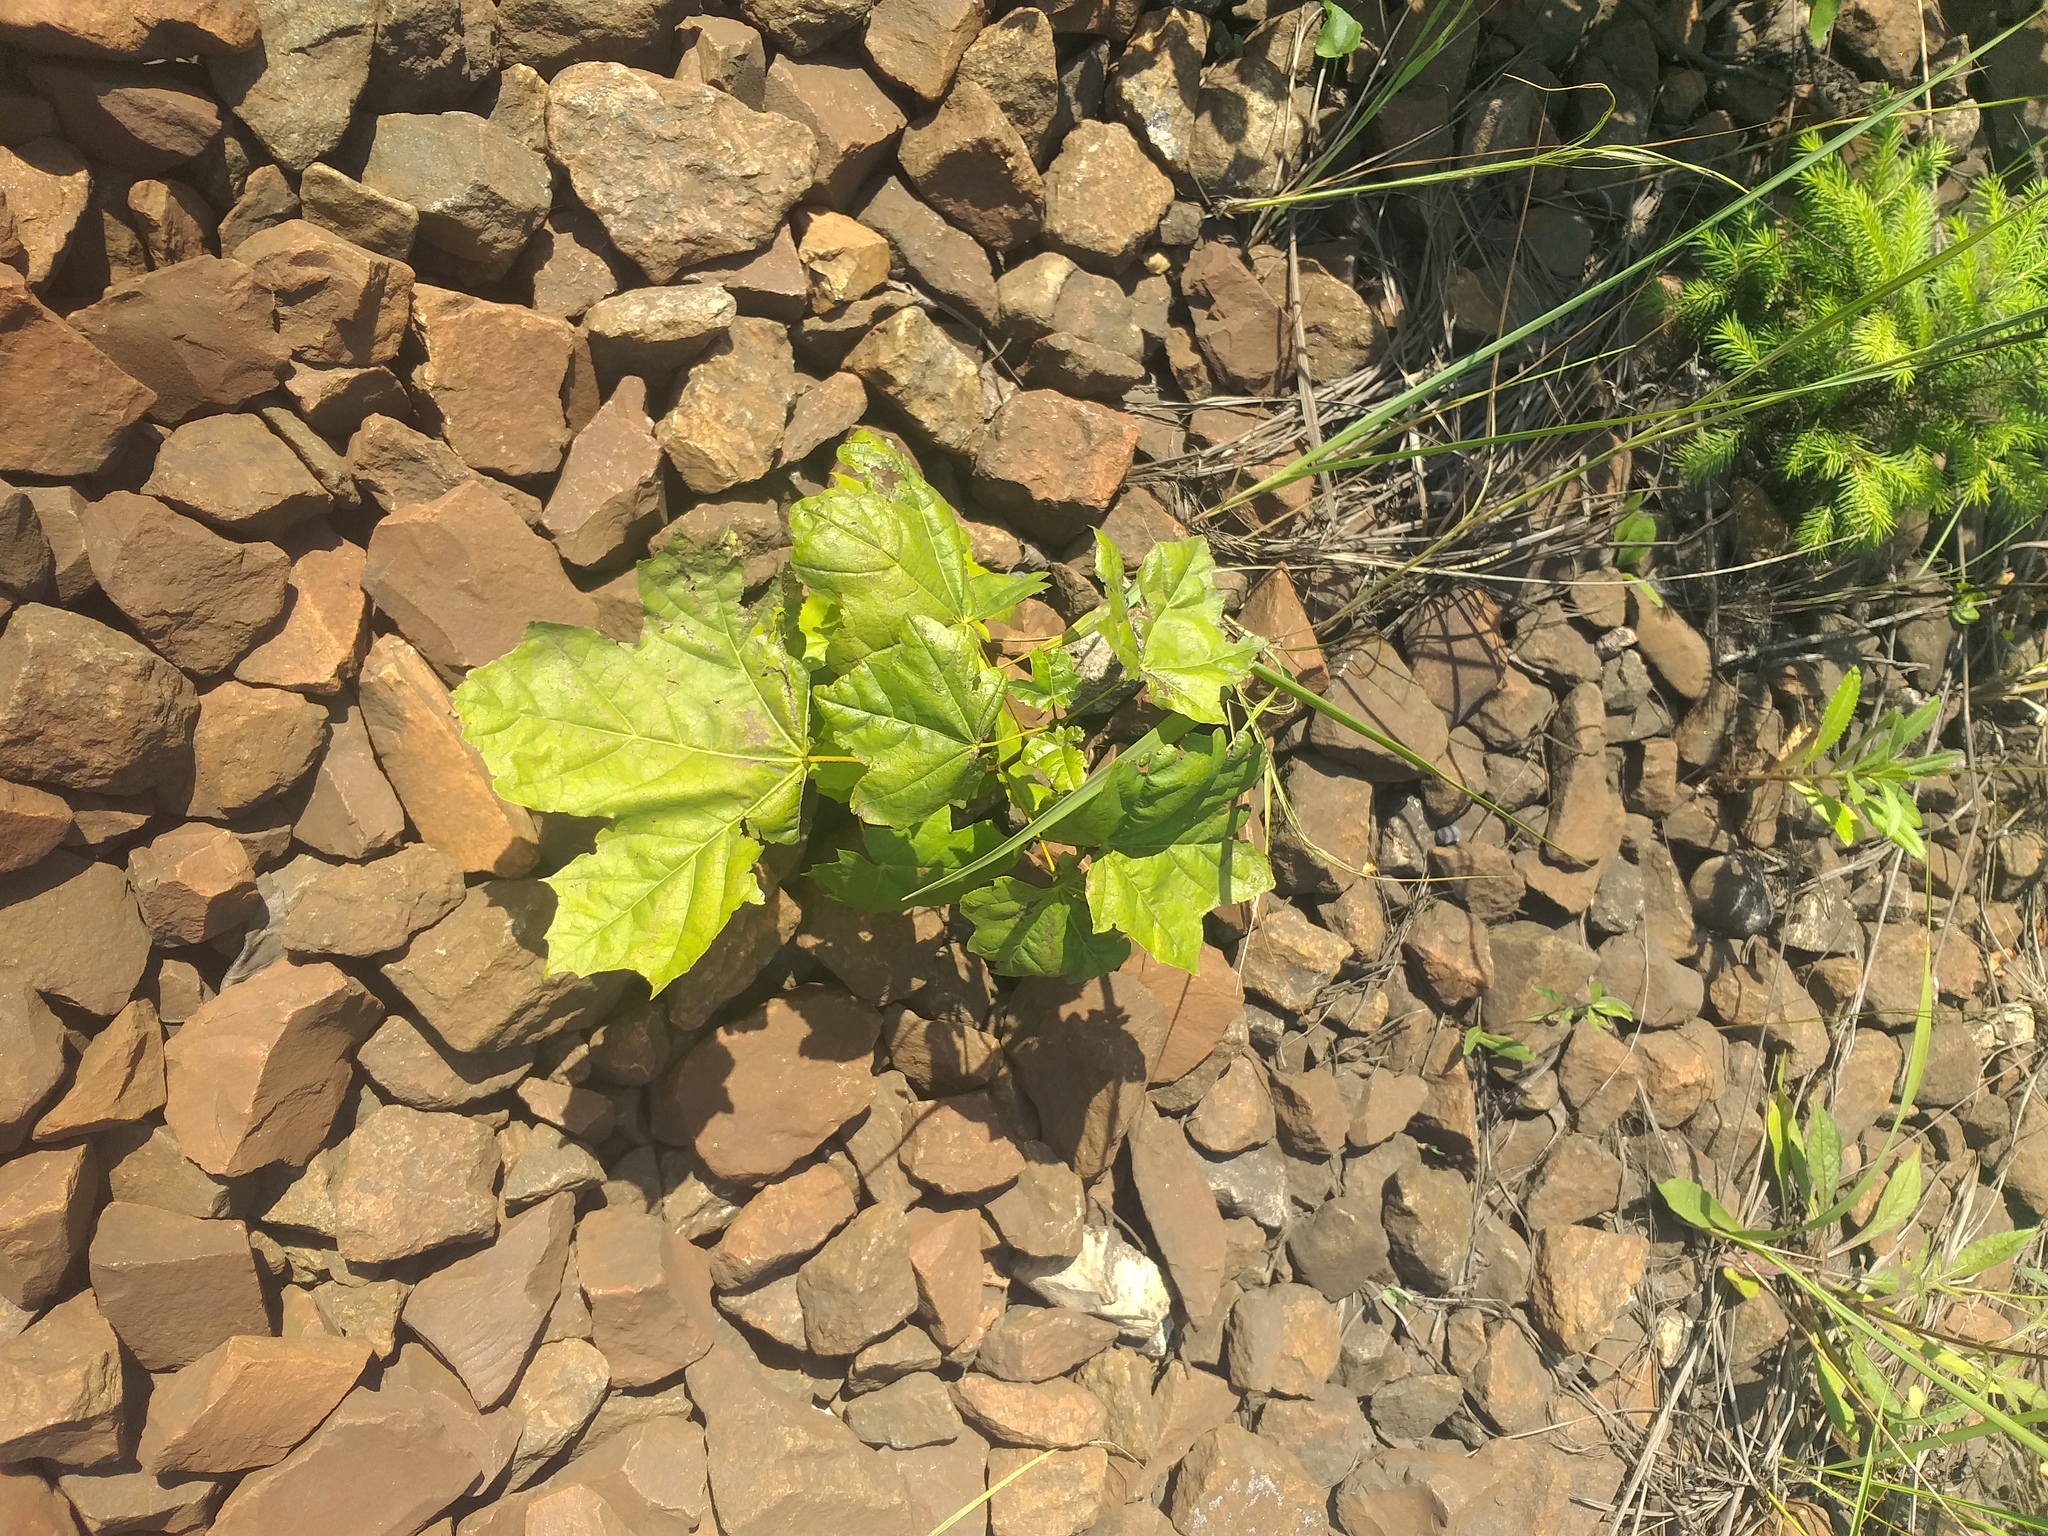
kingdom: Plantae
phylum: Tracheophyta
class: Magnoliopsida
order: Sapindales
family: Sapindaceae
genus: Acer
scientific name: Acer platanoides
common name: Norway maple
